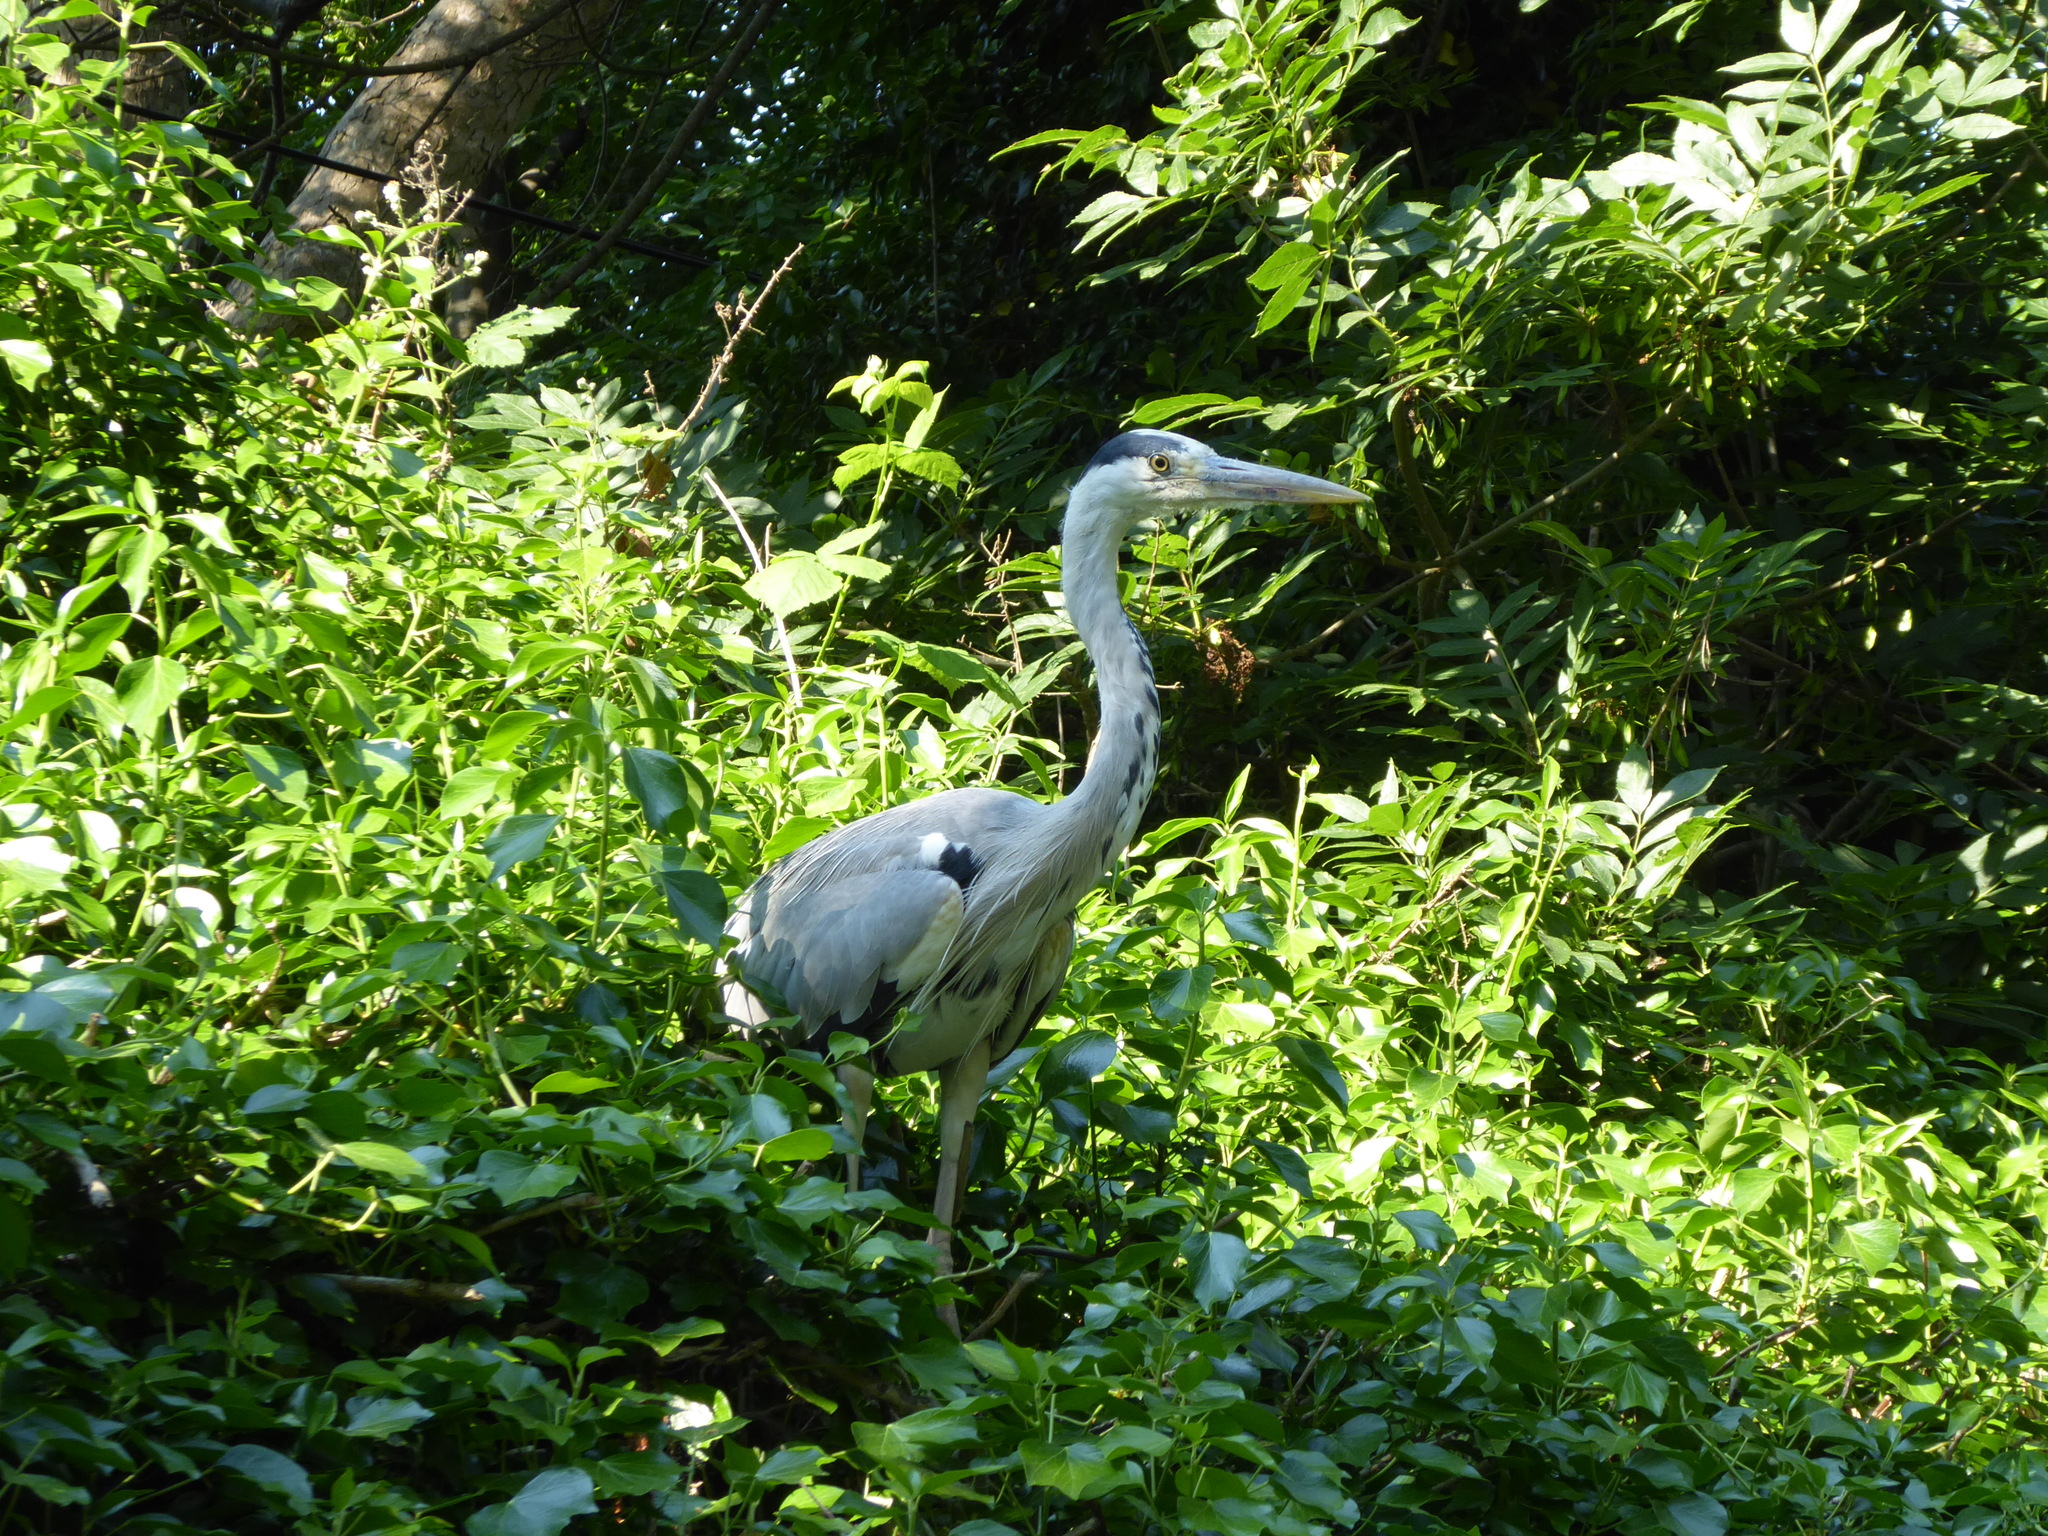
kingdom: Animalia
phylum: Chordata
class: Aves
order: Pelecaniformes
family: Ardeidae
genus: Ardea
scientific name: Ardea cinerea
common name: Grey heron
